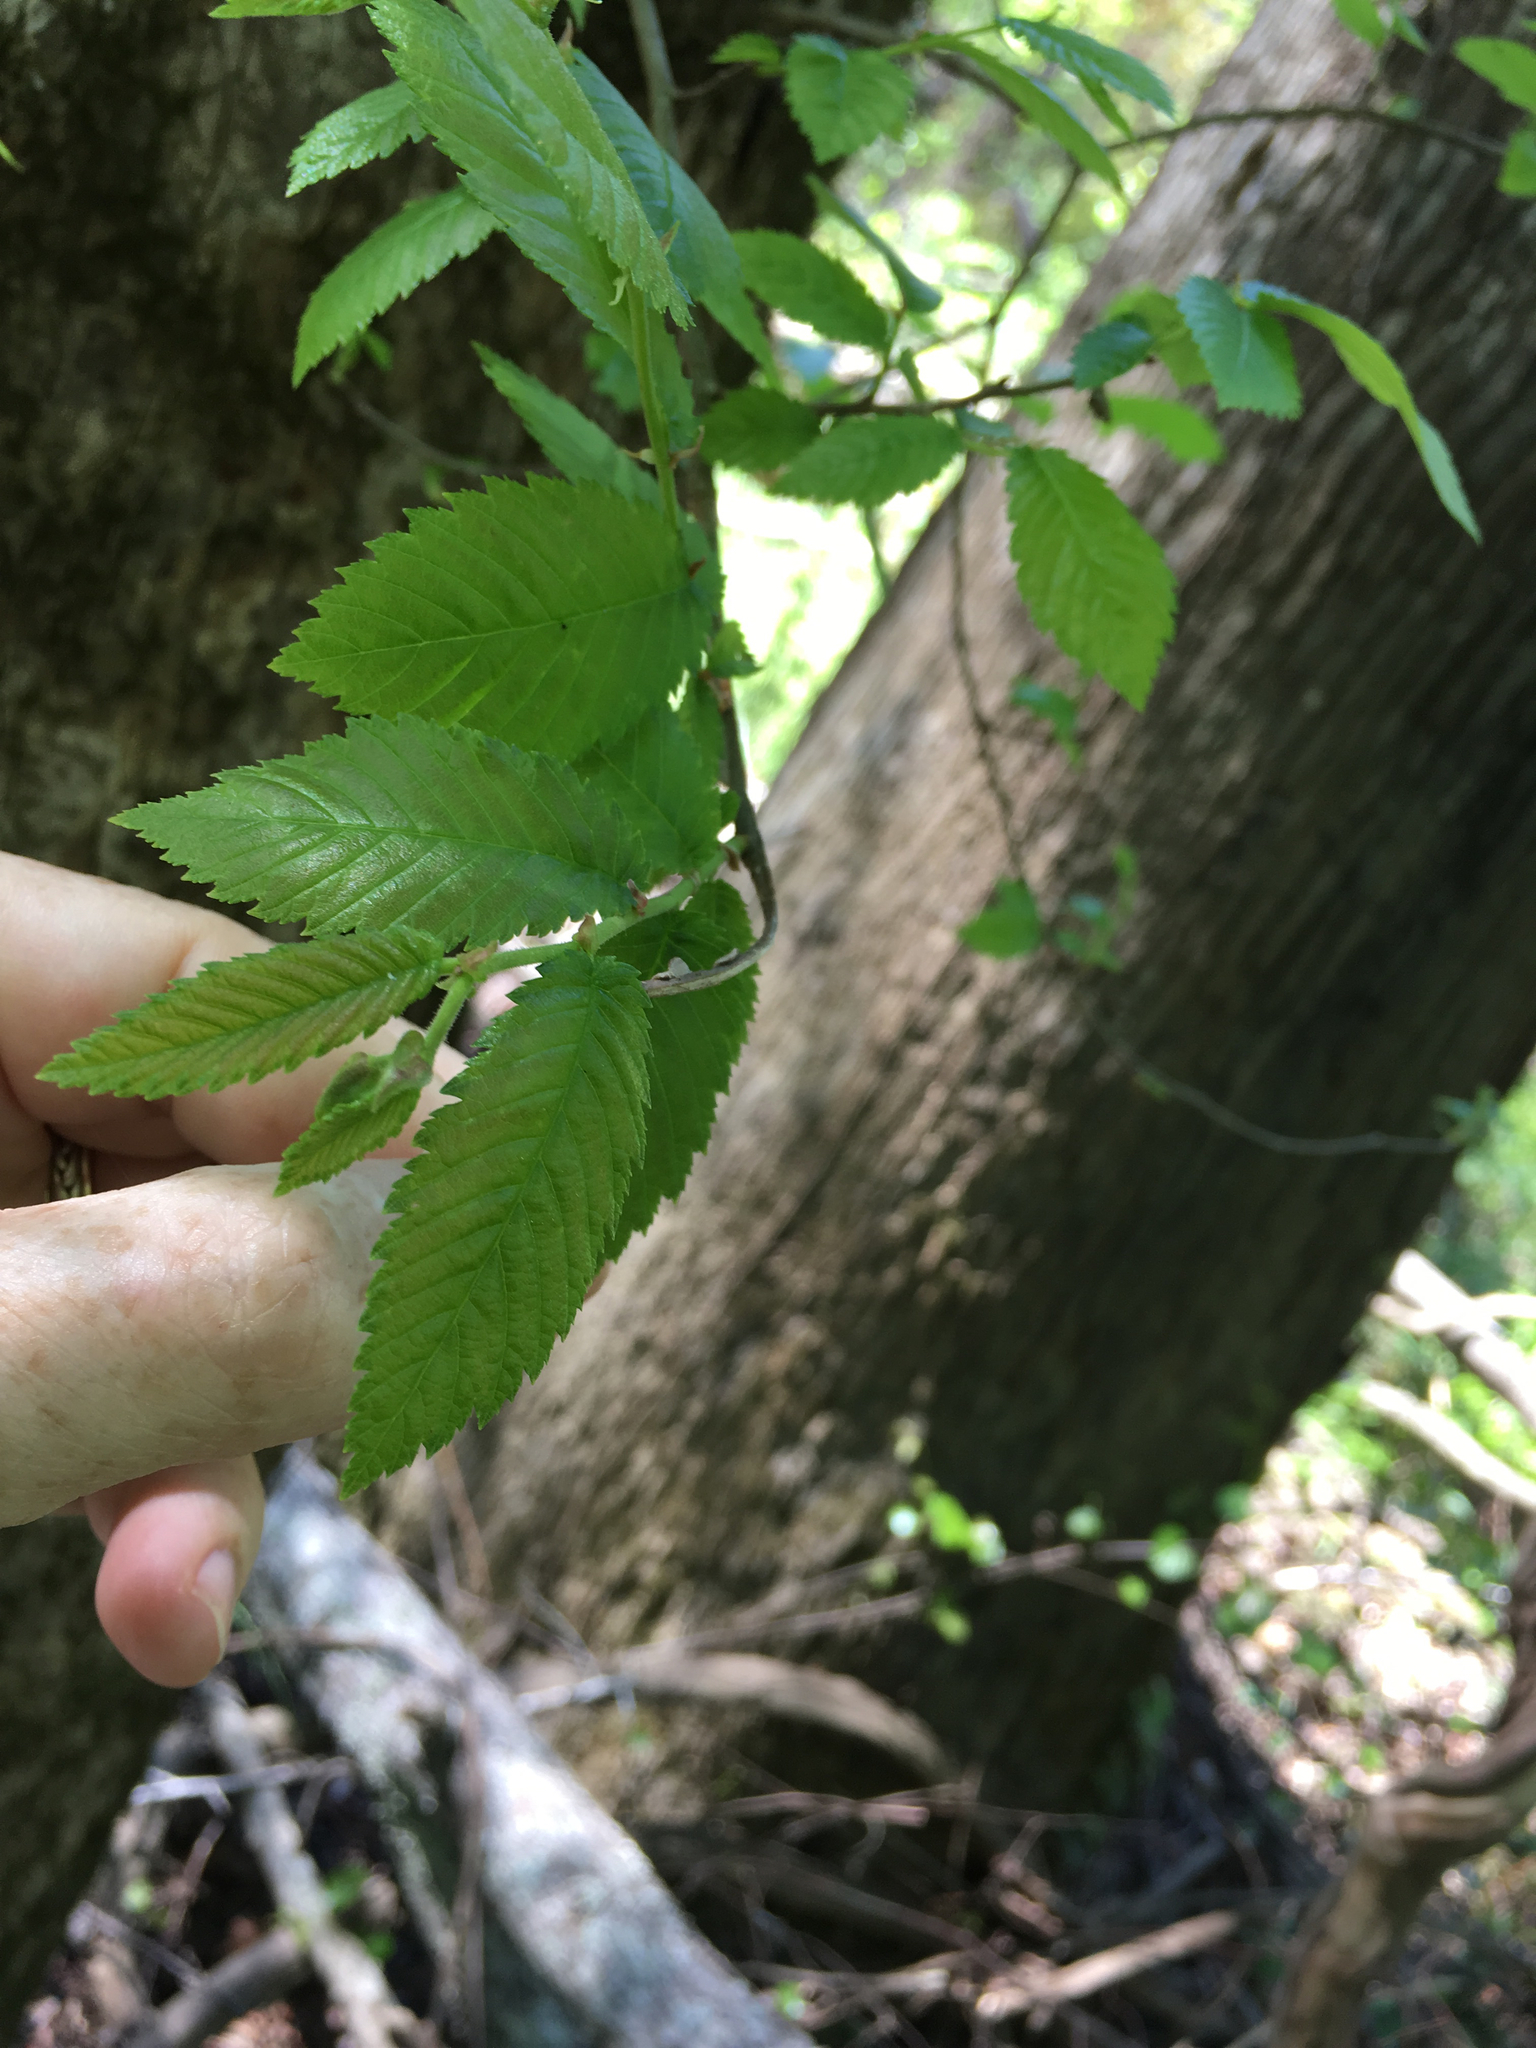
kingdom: Plantae
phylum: Tracheophyta
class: Magnoliopsida
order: Rosales
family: Ulmaceae
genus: Ulmus
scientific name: Ulmus americana
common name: American elm
